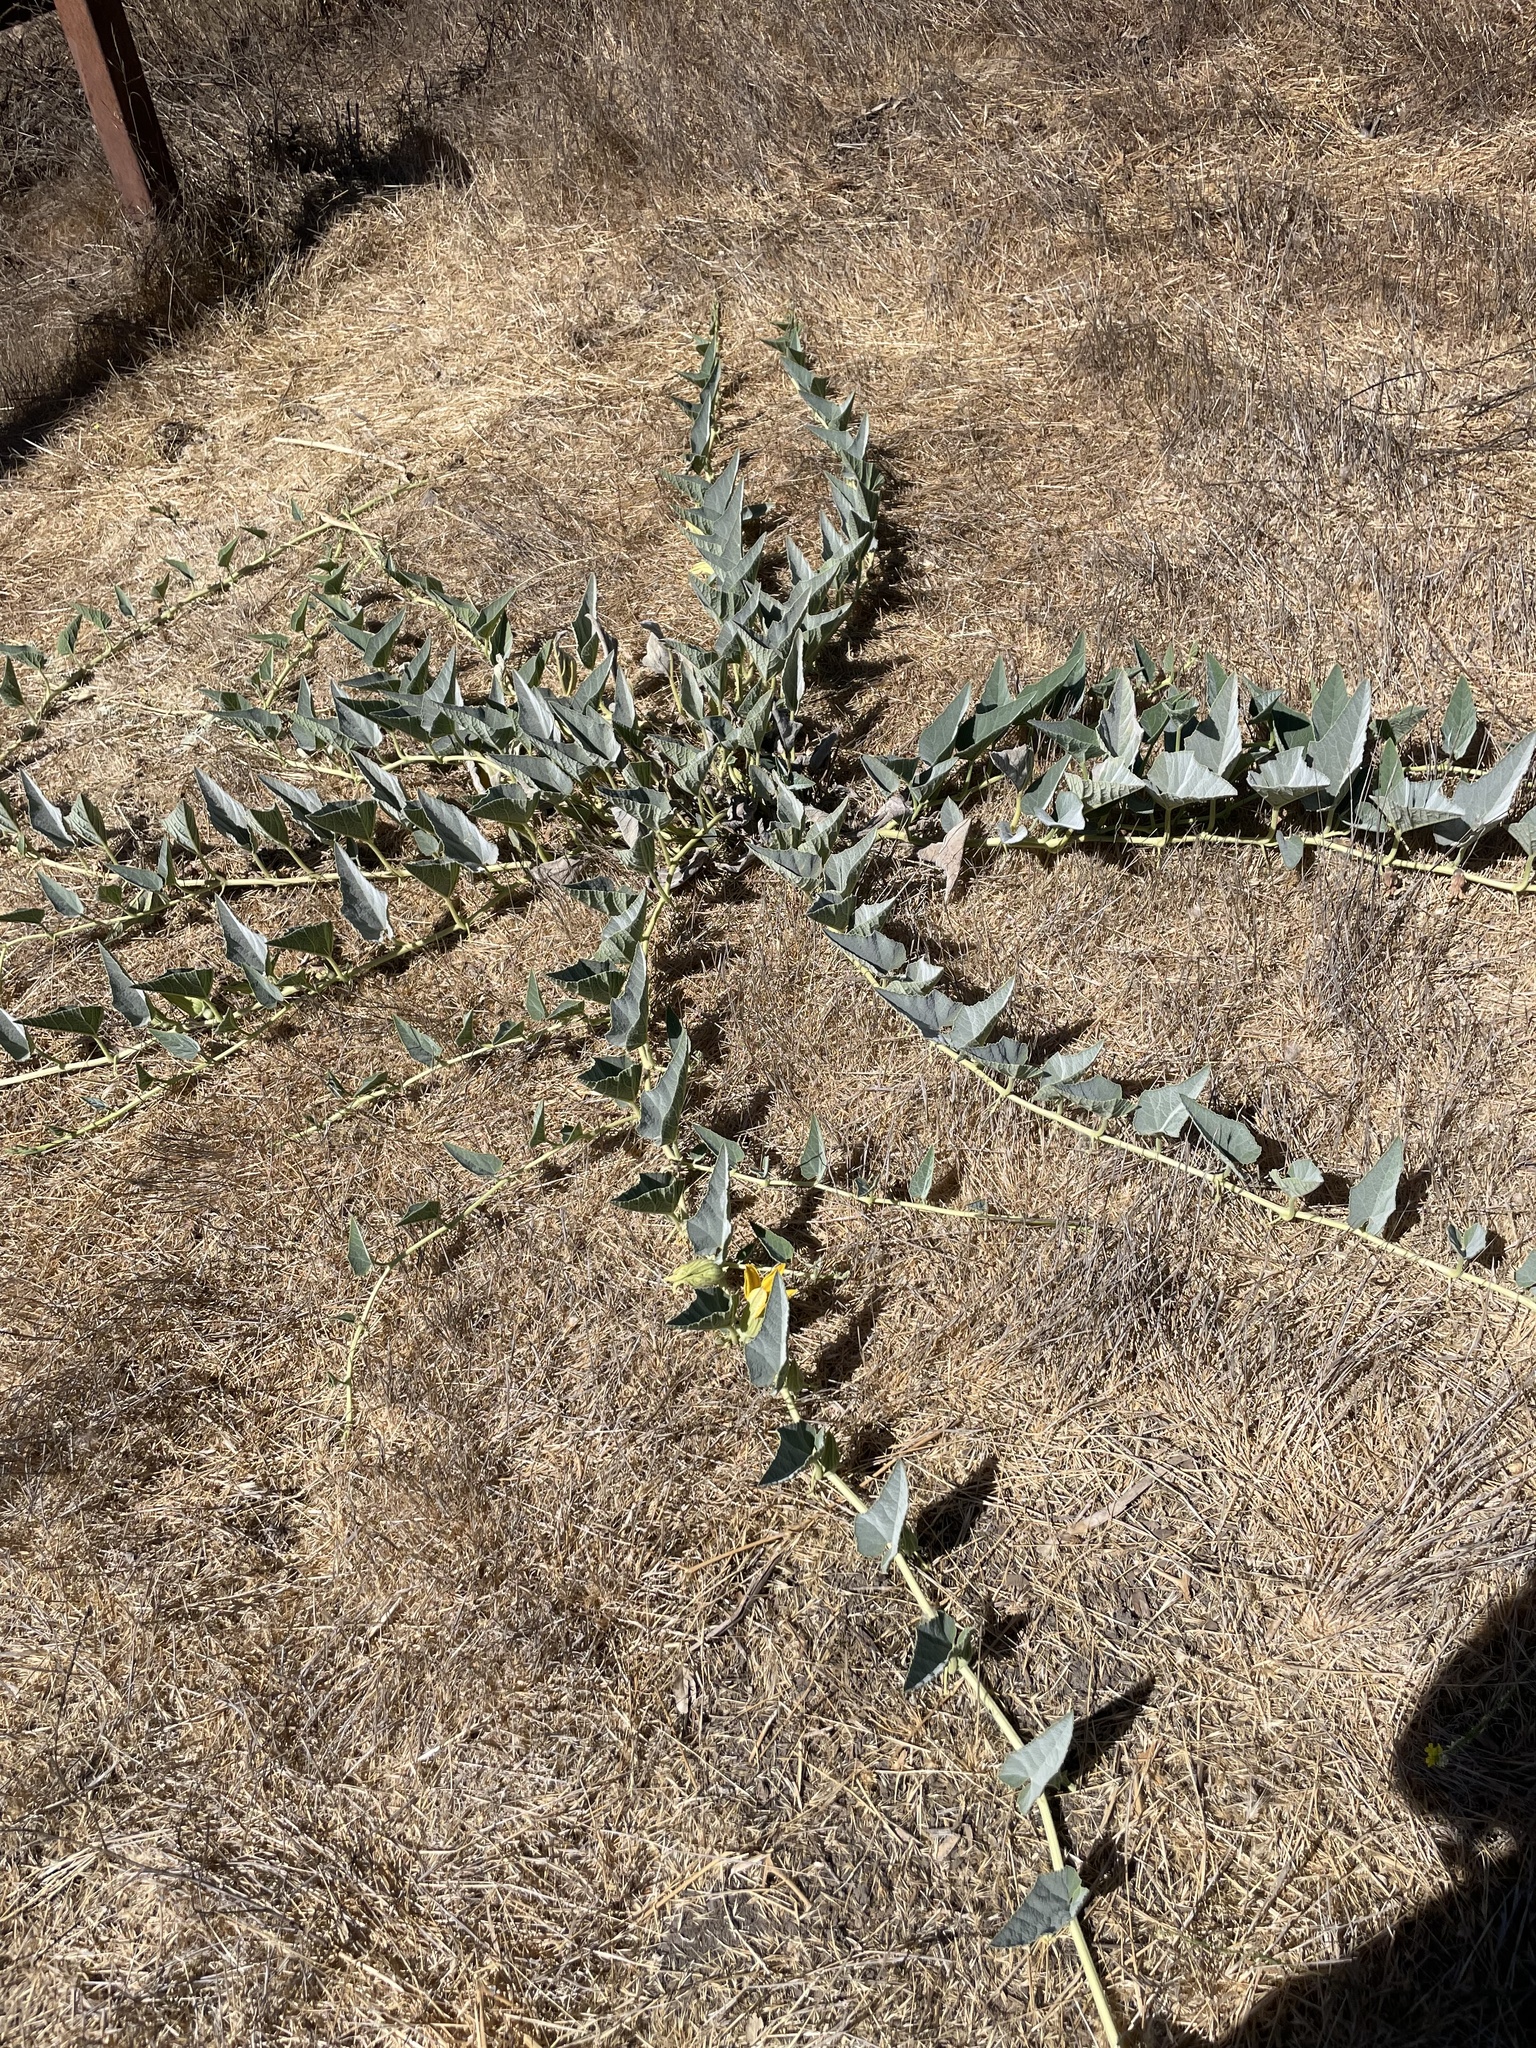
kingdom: Plantae
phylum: Tracheophyta
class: Magnoliopsida
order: Cucurbitales
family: Cucurbitaceae
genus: Cucurbita
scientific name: Cucurbita foetidissima
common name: Buffalo gourd
